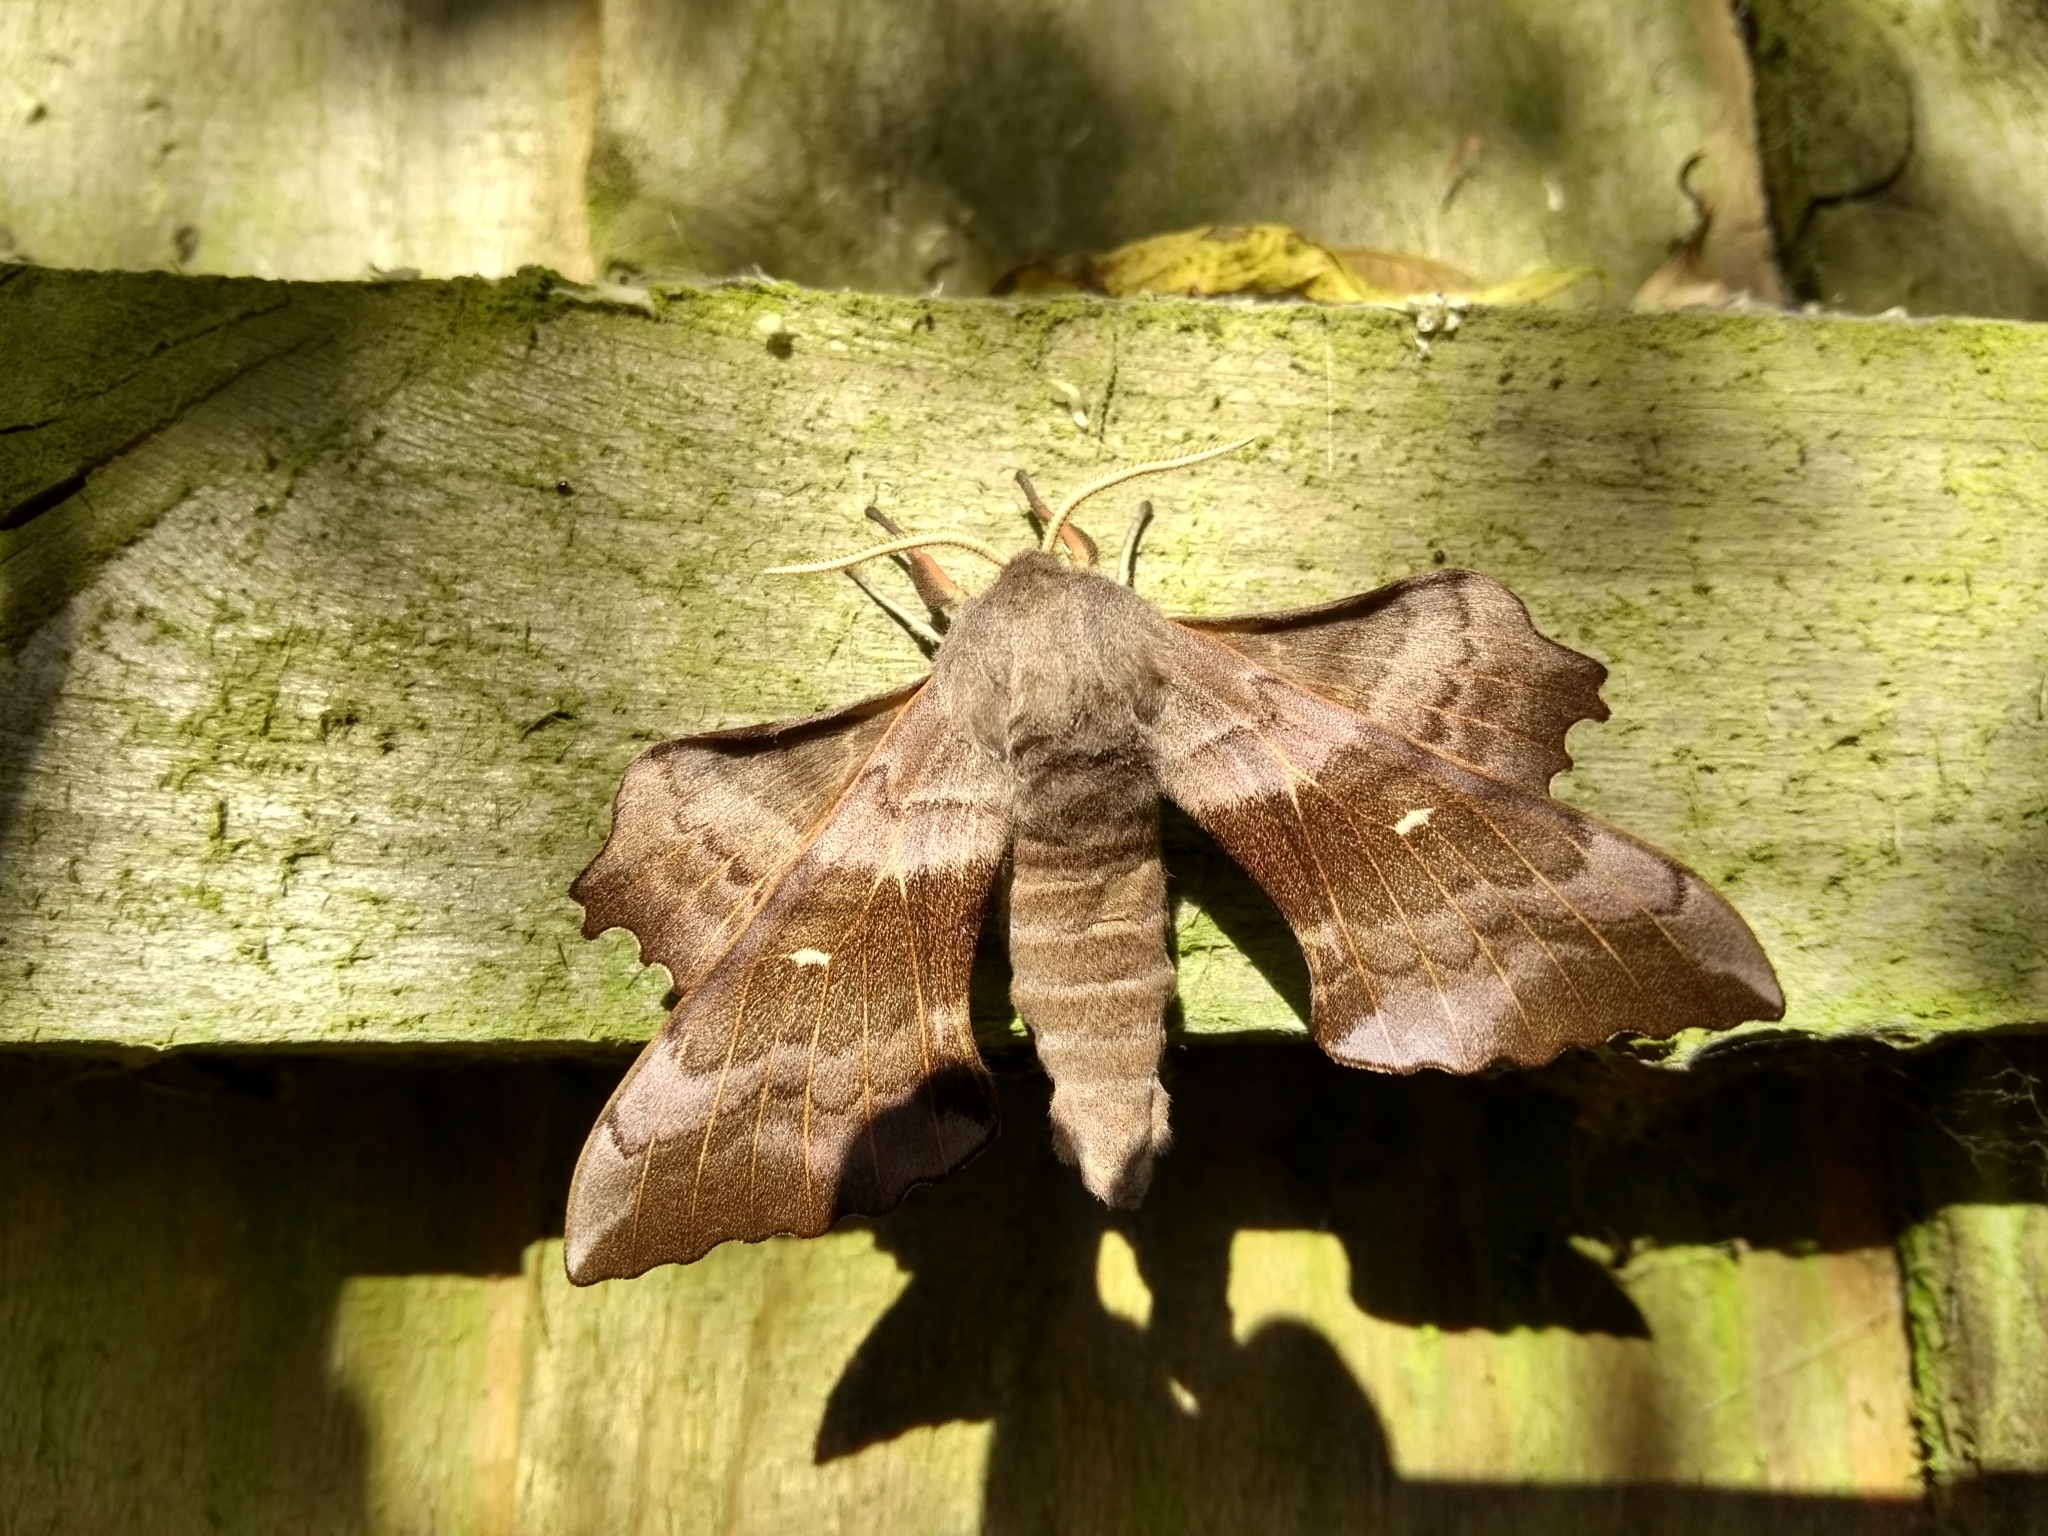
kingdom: Animalia
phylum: Arthropoda
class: Insecta
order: Lepidoptera
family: Sphingidae
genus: Laothoe
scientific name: Laothoe populi
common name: Poplar hawk-moth
